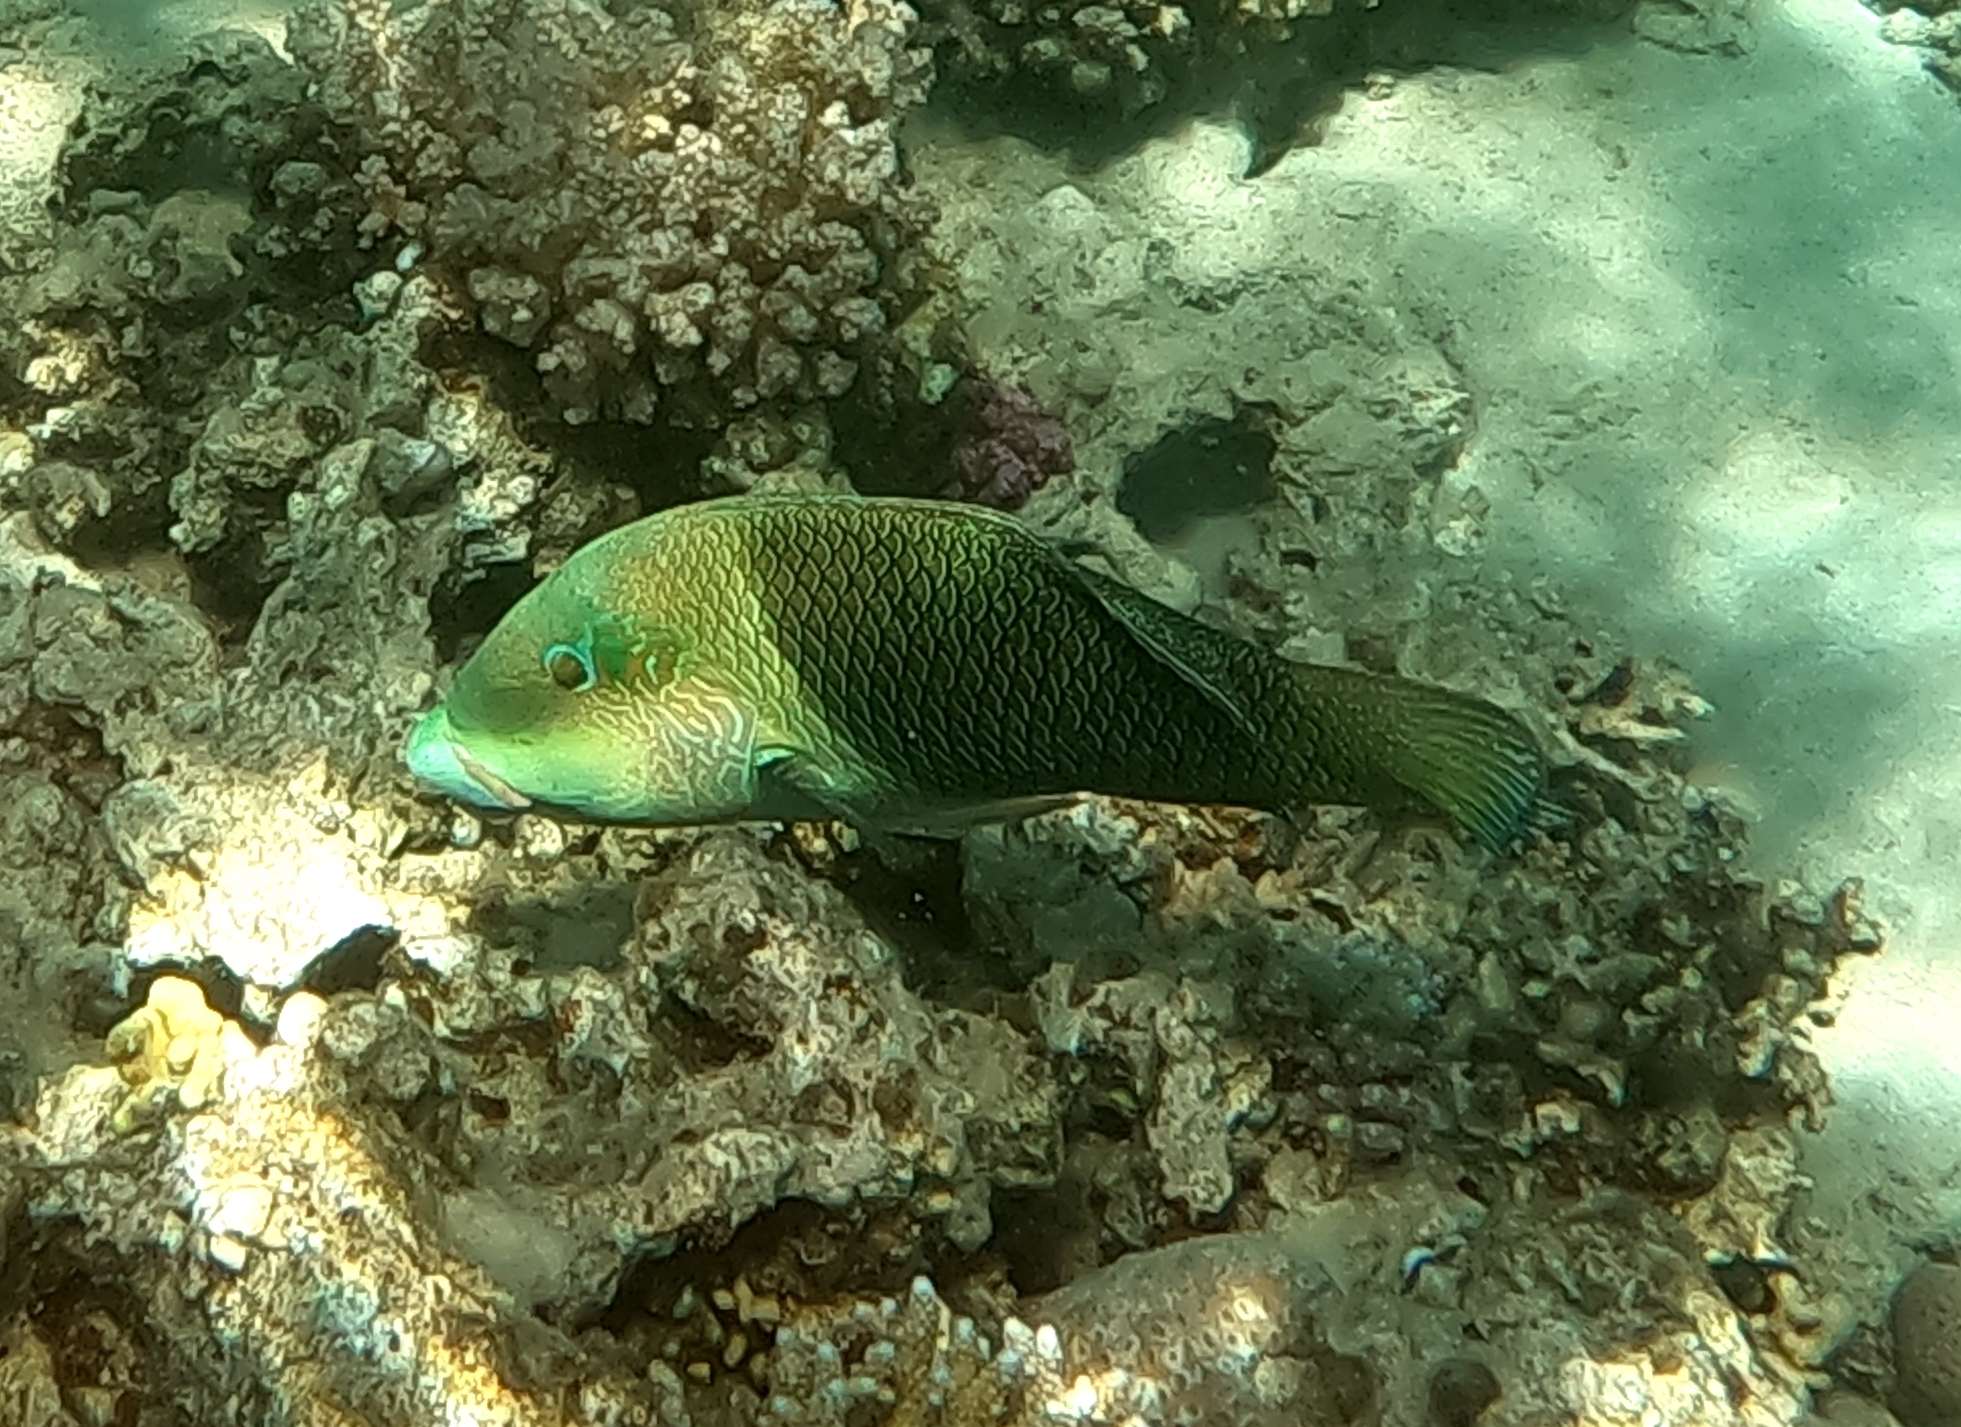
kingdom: Animalia
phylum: Chordata
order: Perciformes
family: Labridae
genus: Hemigymnus
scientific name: Hemigymnus melapterus
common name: Blackeye thicklip
